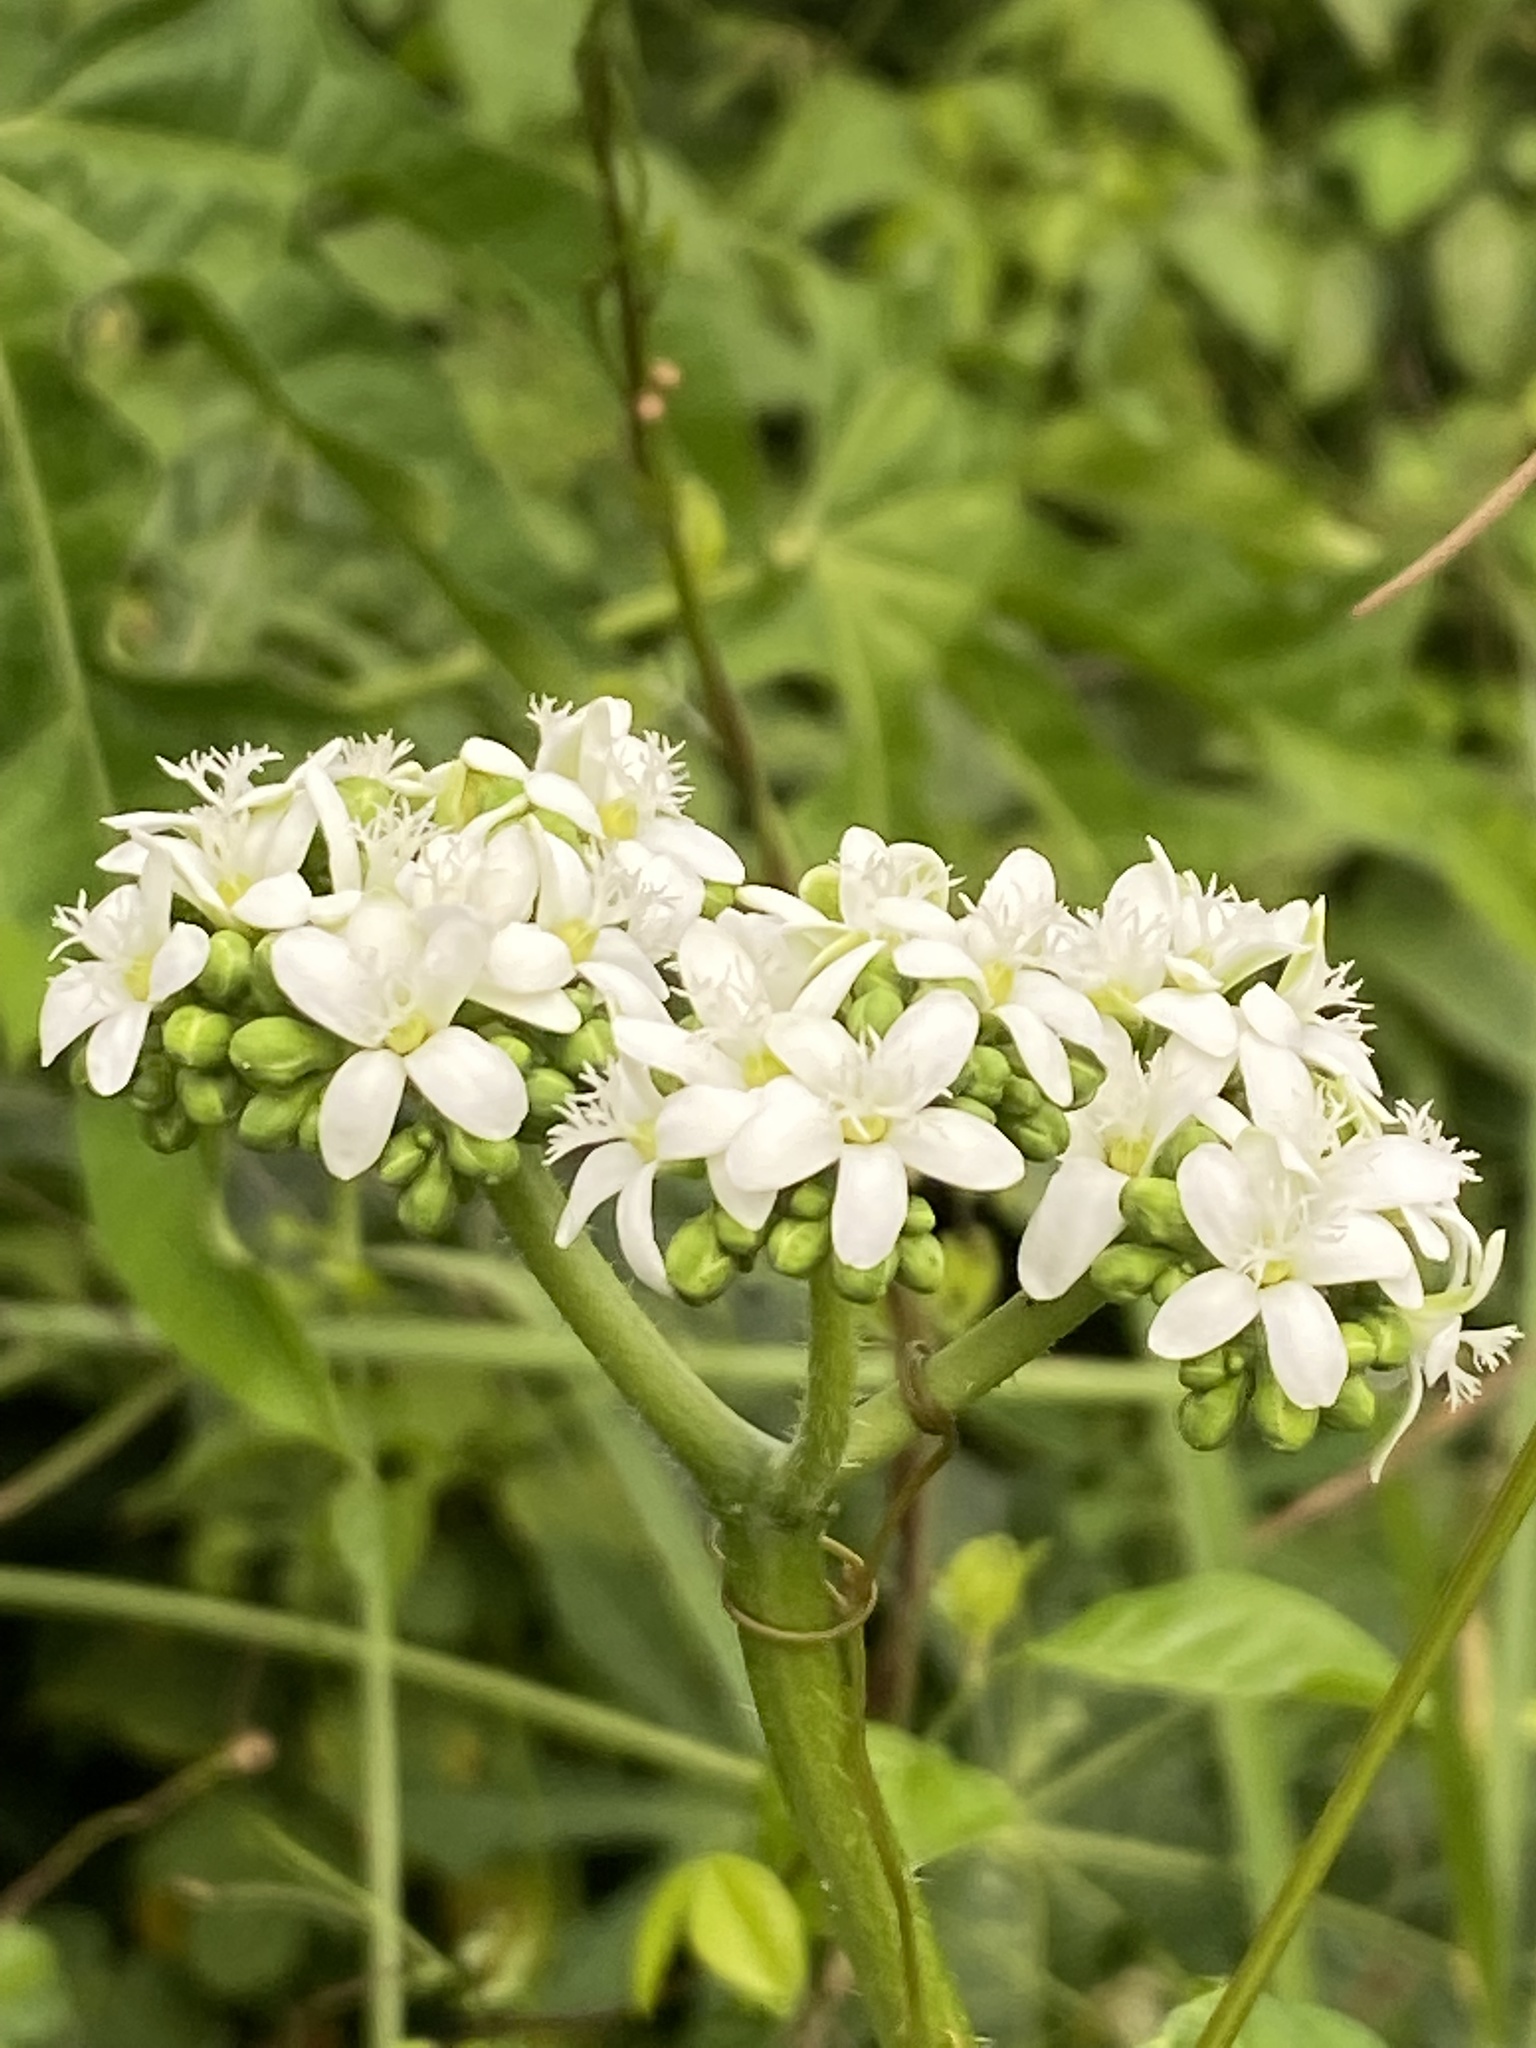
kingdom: Plantae
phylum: Tracheophyta
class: Magnoliopsida
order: Malpighiales
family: Euphorbiaceae
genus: Cnidoscolus
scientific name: Cnidoscolus aconitifolius
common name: Cabbage-star
